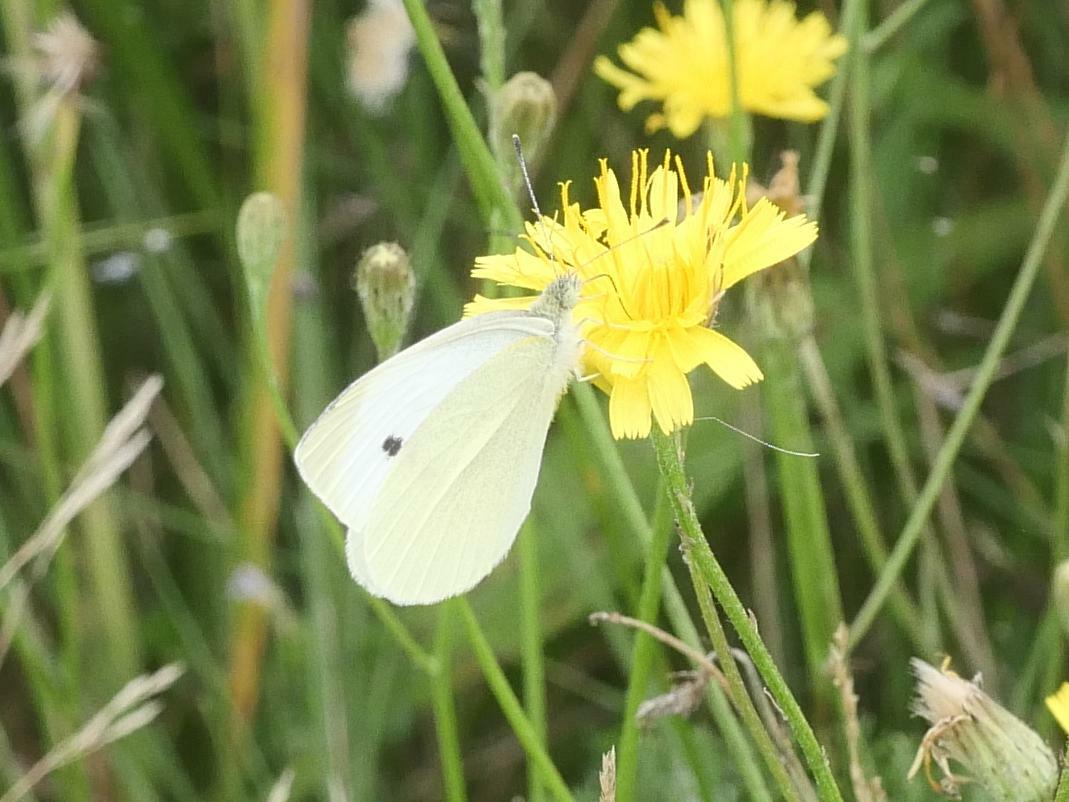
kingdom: Animalia
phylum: Arthropoda
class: Insecta
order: Lepidoptera
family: Pieridae
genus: Pieris
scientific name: Pieris rapae
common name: Small white
